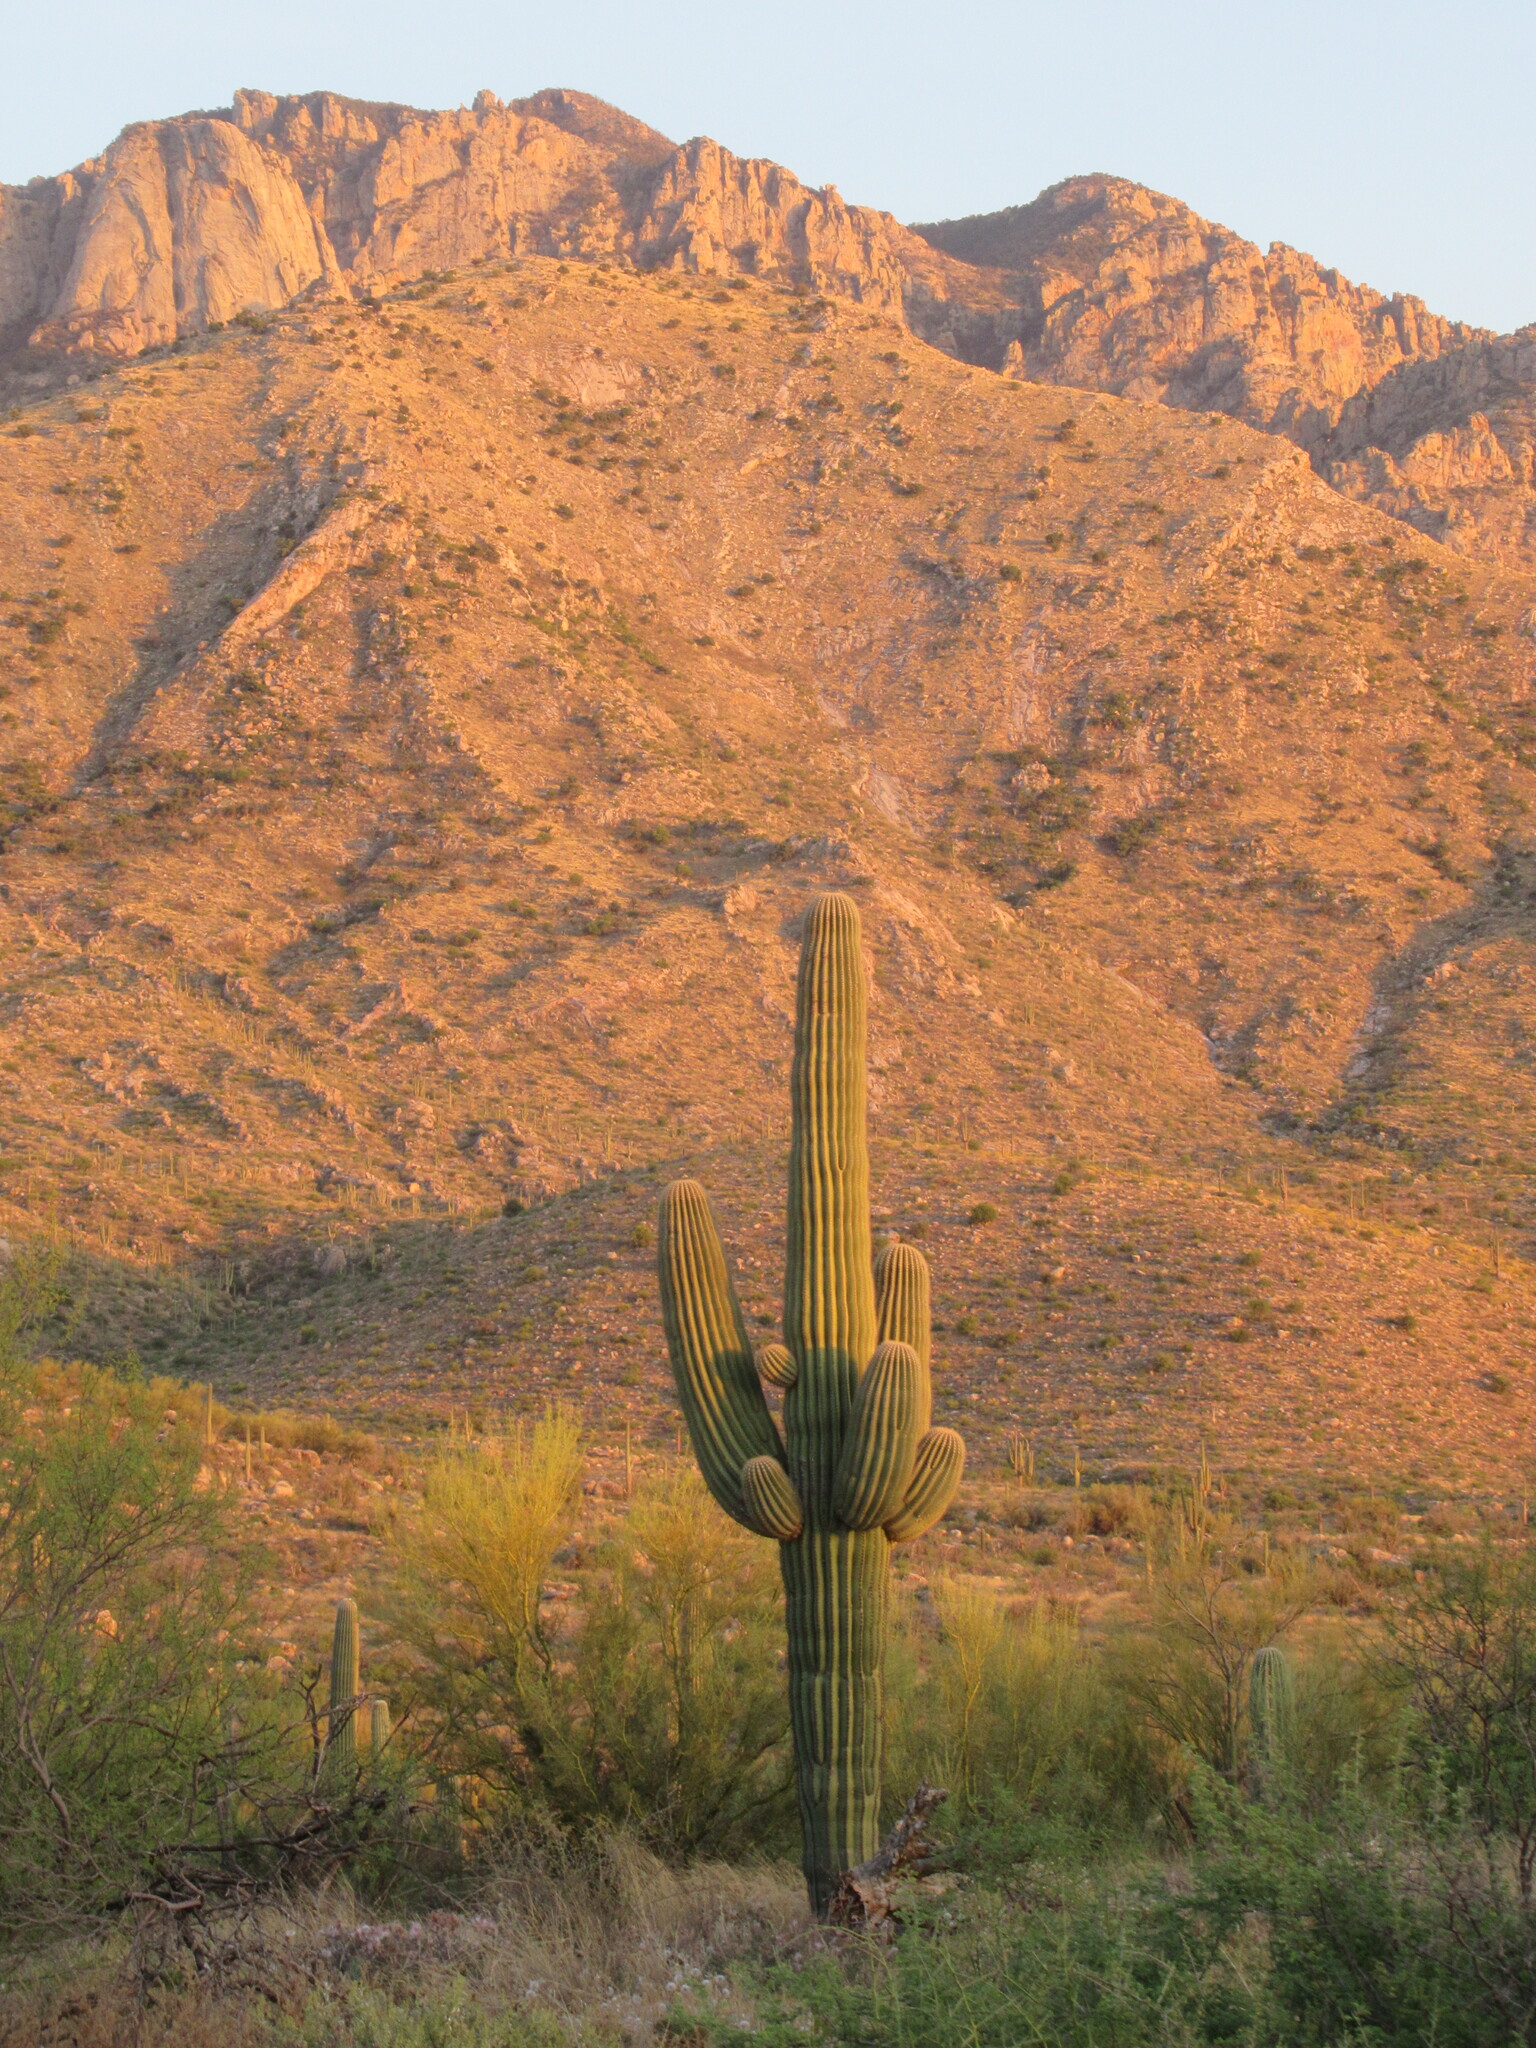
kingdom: Plantae
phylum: Tracheophyta
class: Magnoliopsida
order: Caryophyllales
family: Cactaceae
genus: Carnegiea
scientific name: Carnegiea gigantea
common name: Saguaro
